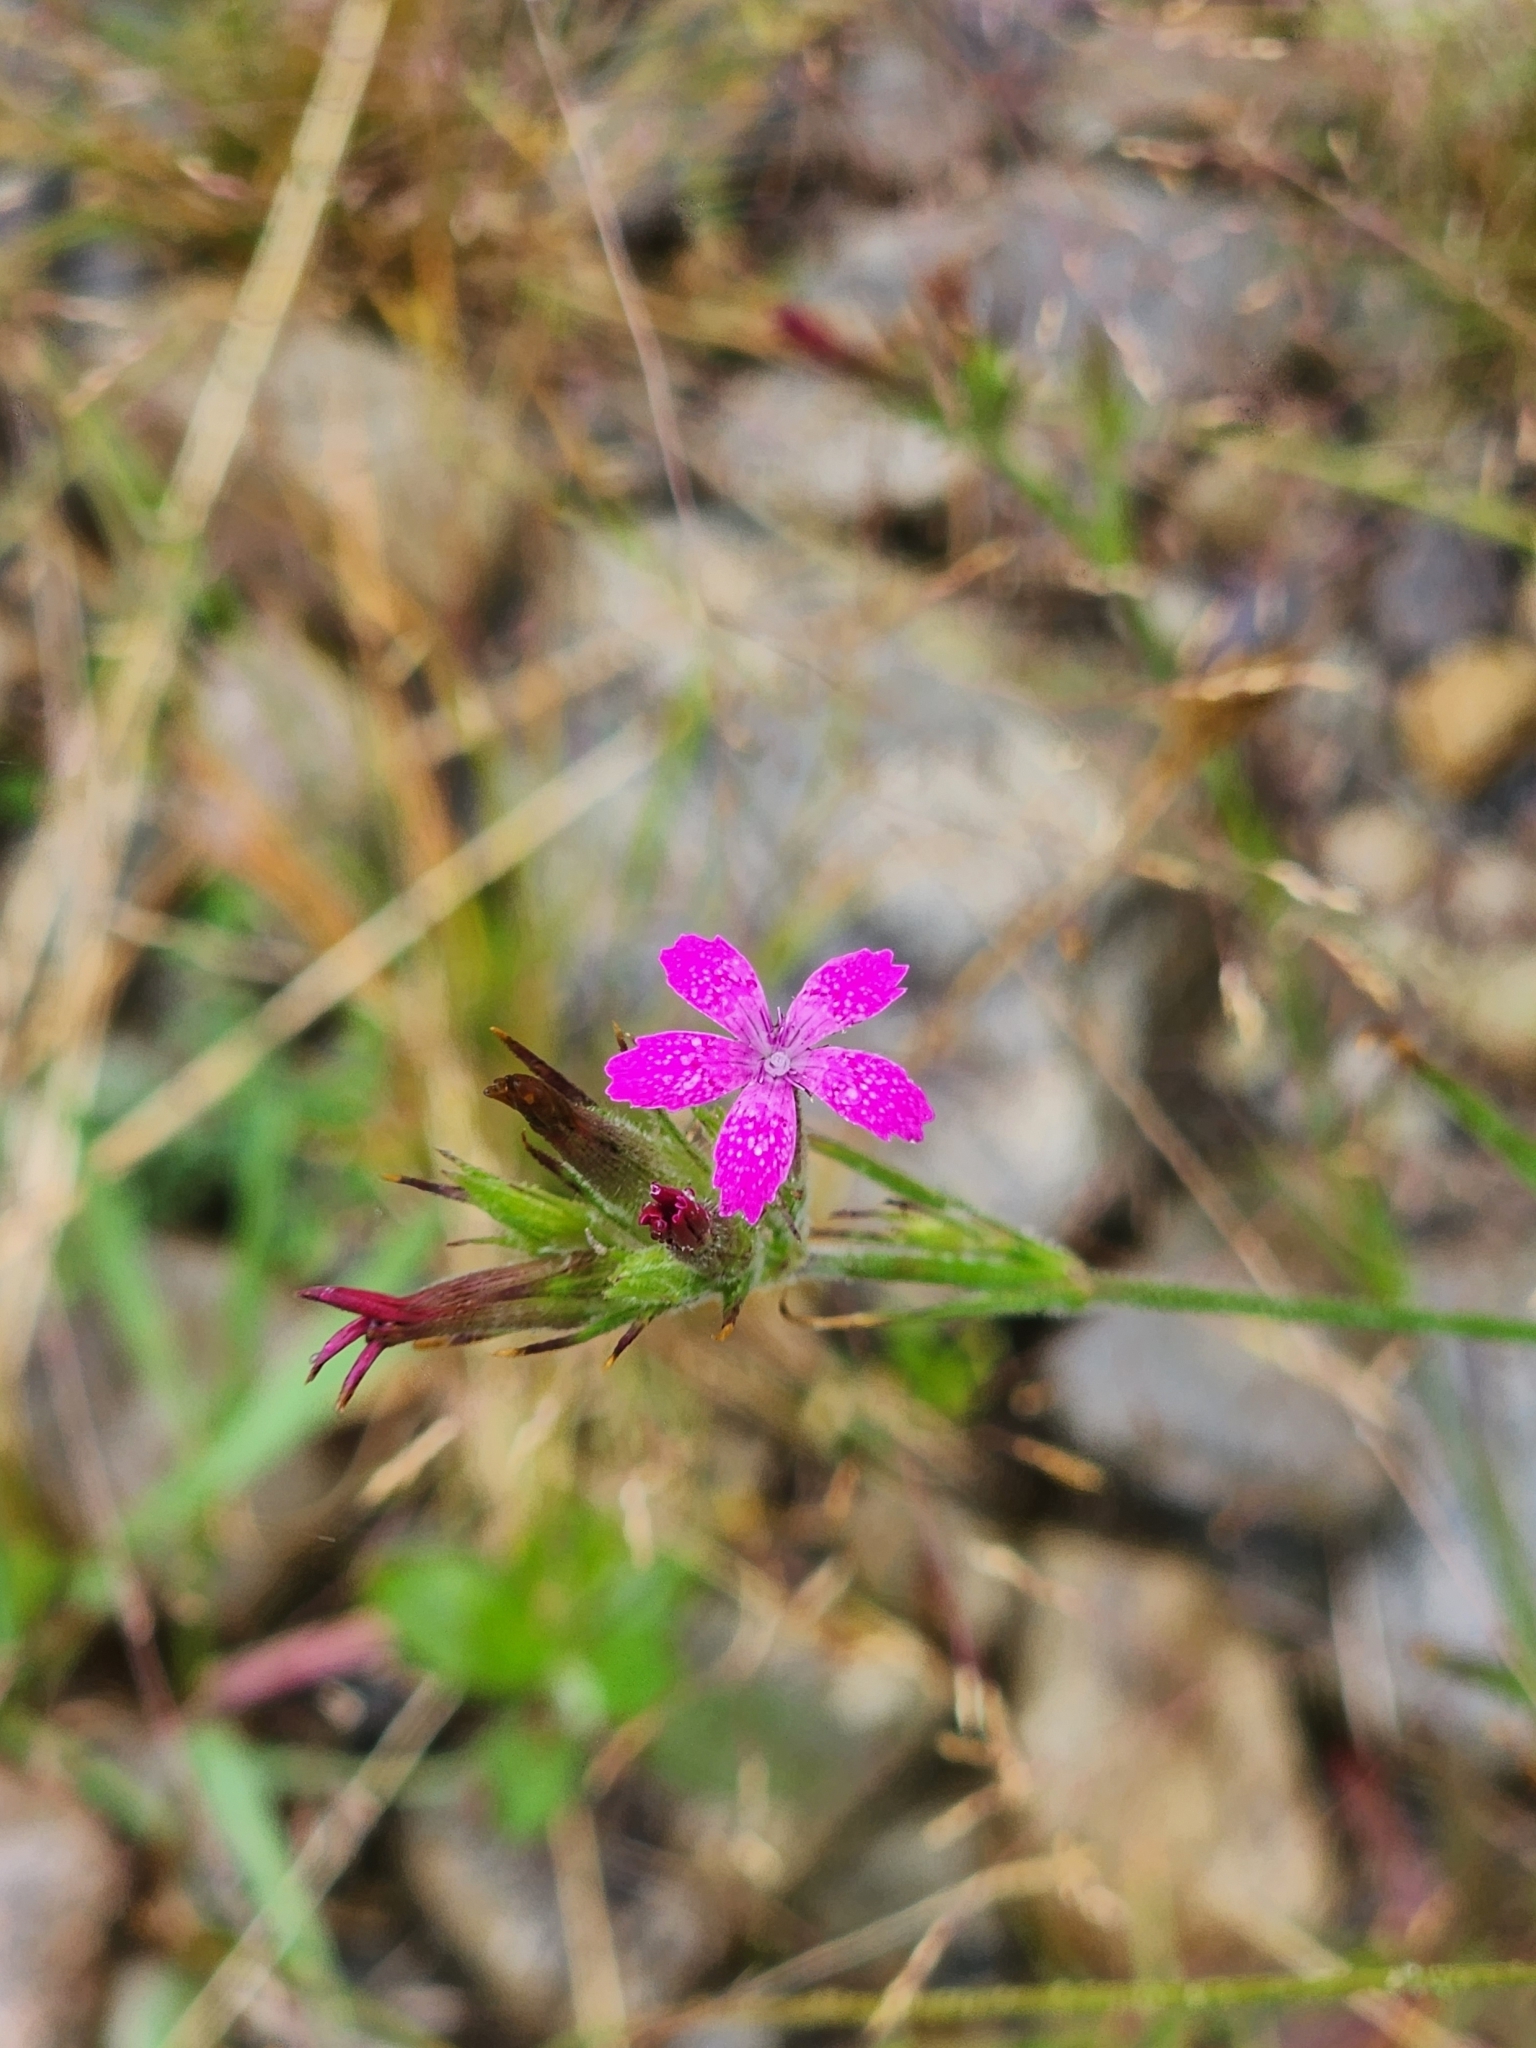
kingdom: Plantae
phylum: Tracheophyta
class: Magnoliopsida
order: Caryophyllales
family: Caryophyllaceae
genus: Dianthus
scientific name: Dianthus armeria
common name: Deptford pink
